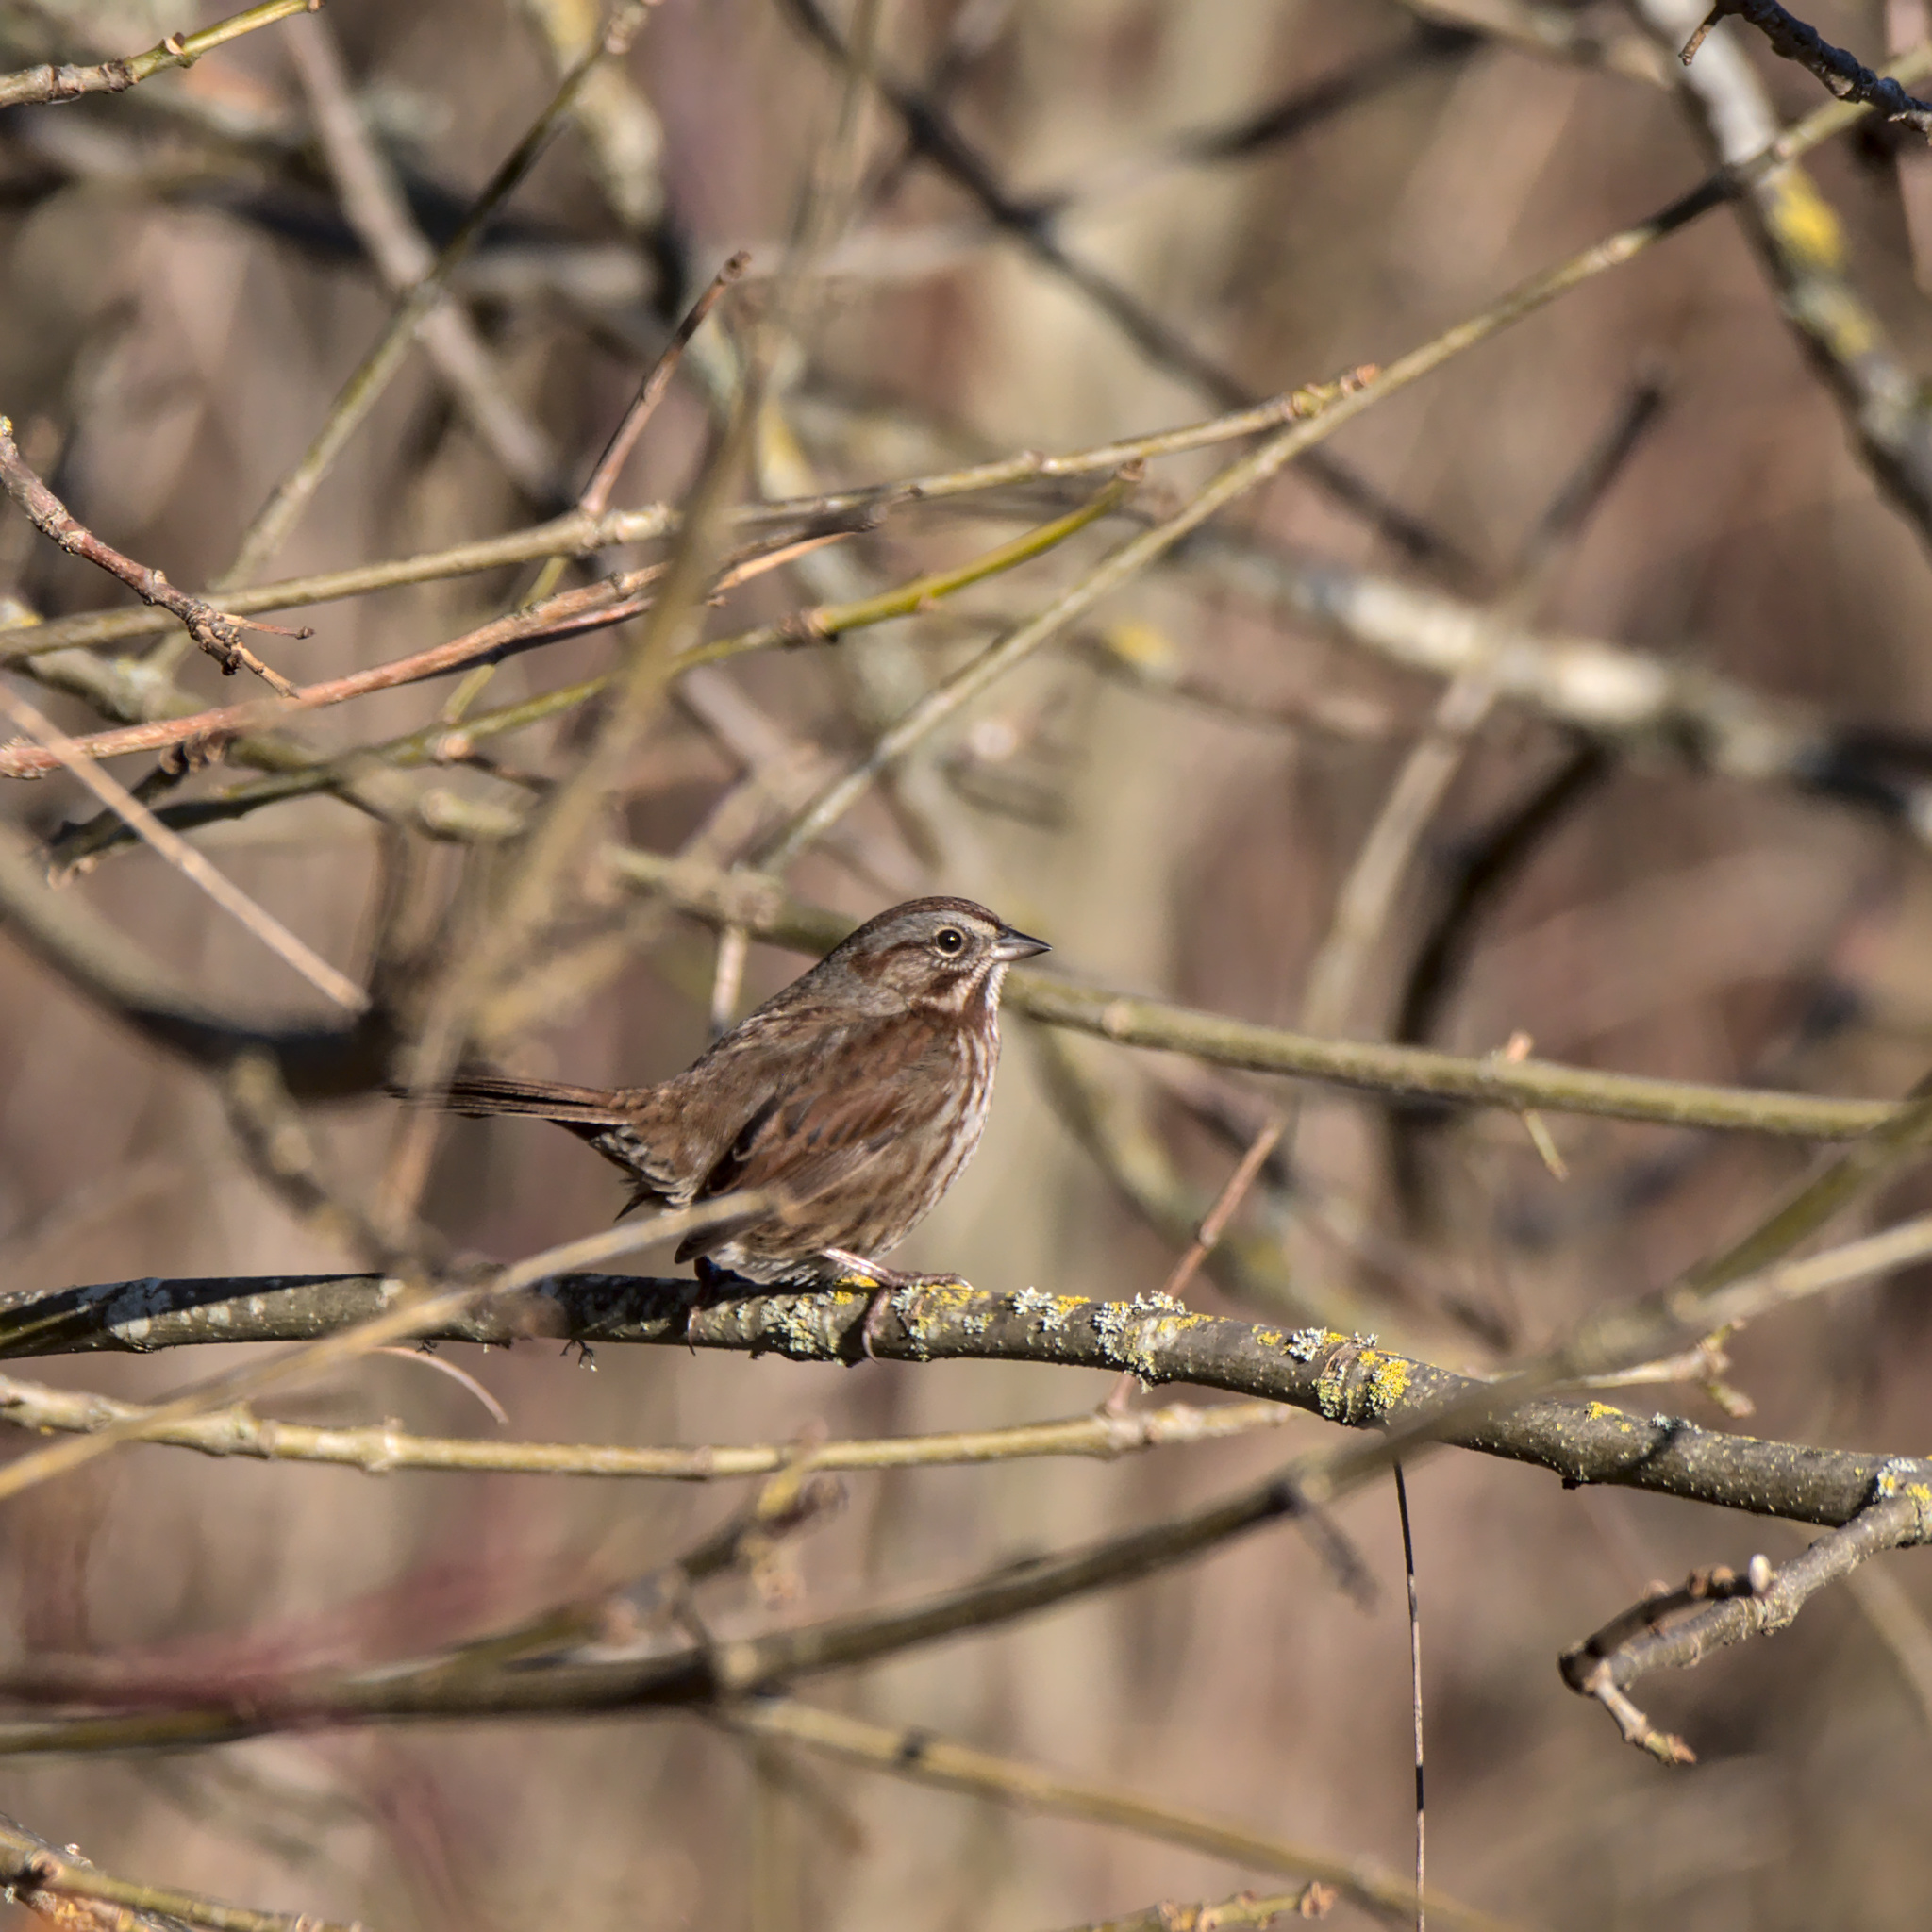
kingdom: Animalia
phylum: Chordata
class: Aves
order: Passeriformes
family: Passerellidae
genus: Melospiza
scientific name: Melospiza melodia
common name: Song sparrow
